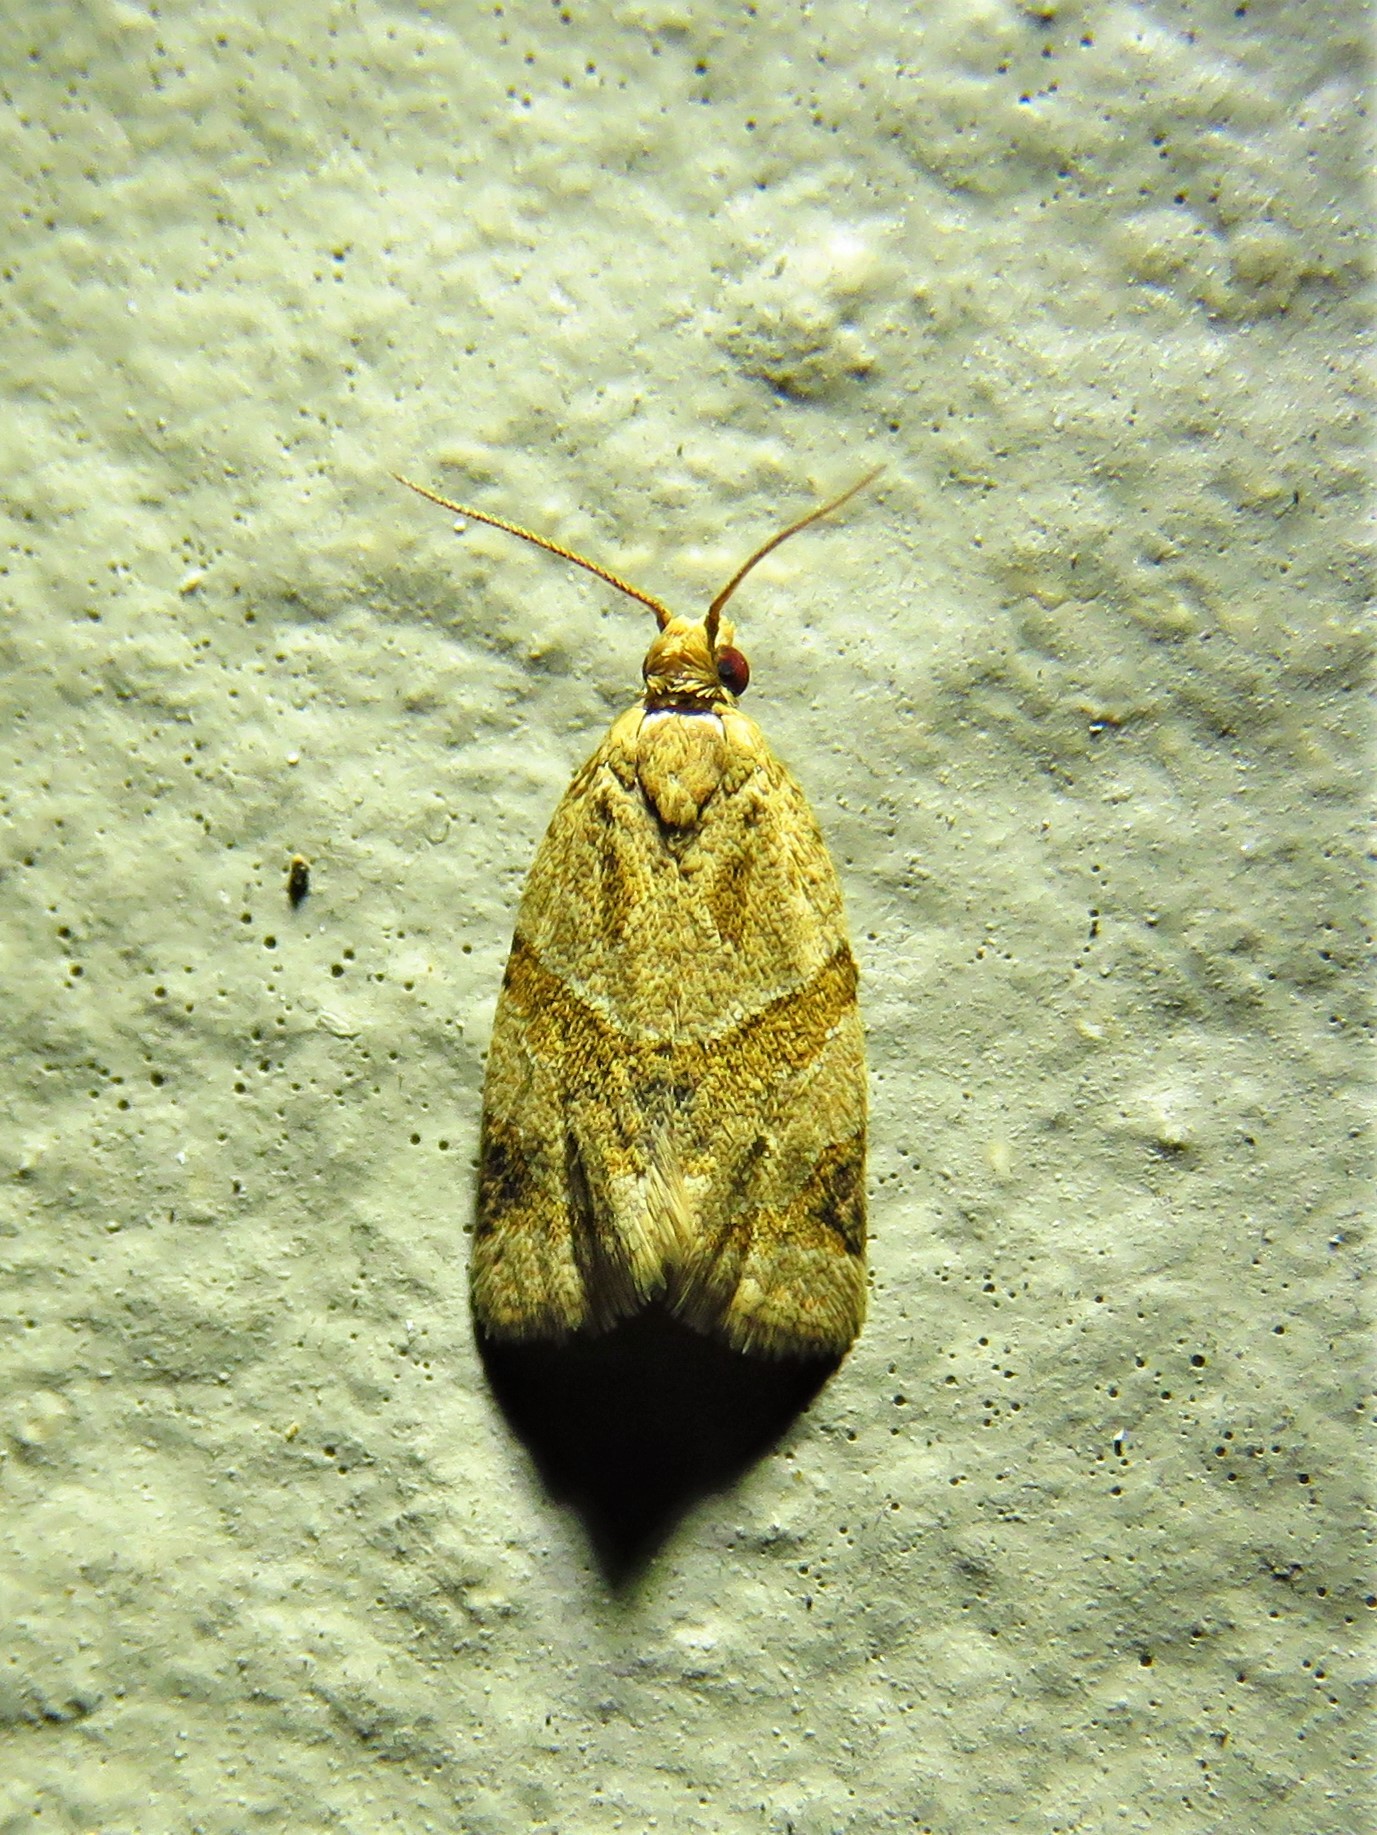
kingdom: Animalia
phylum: Arthropoda
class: Insecta
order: Lepidoptera
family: Tortricidae
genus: Clepsis
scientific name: Clepsis peritana
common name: Garden tortrix
